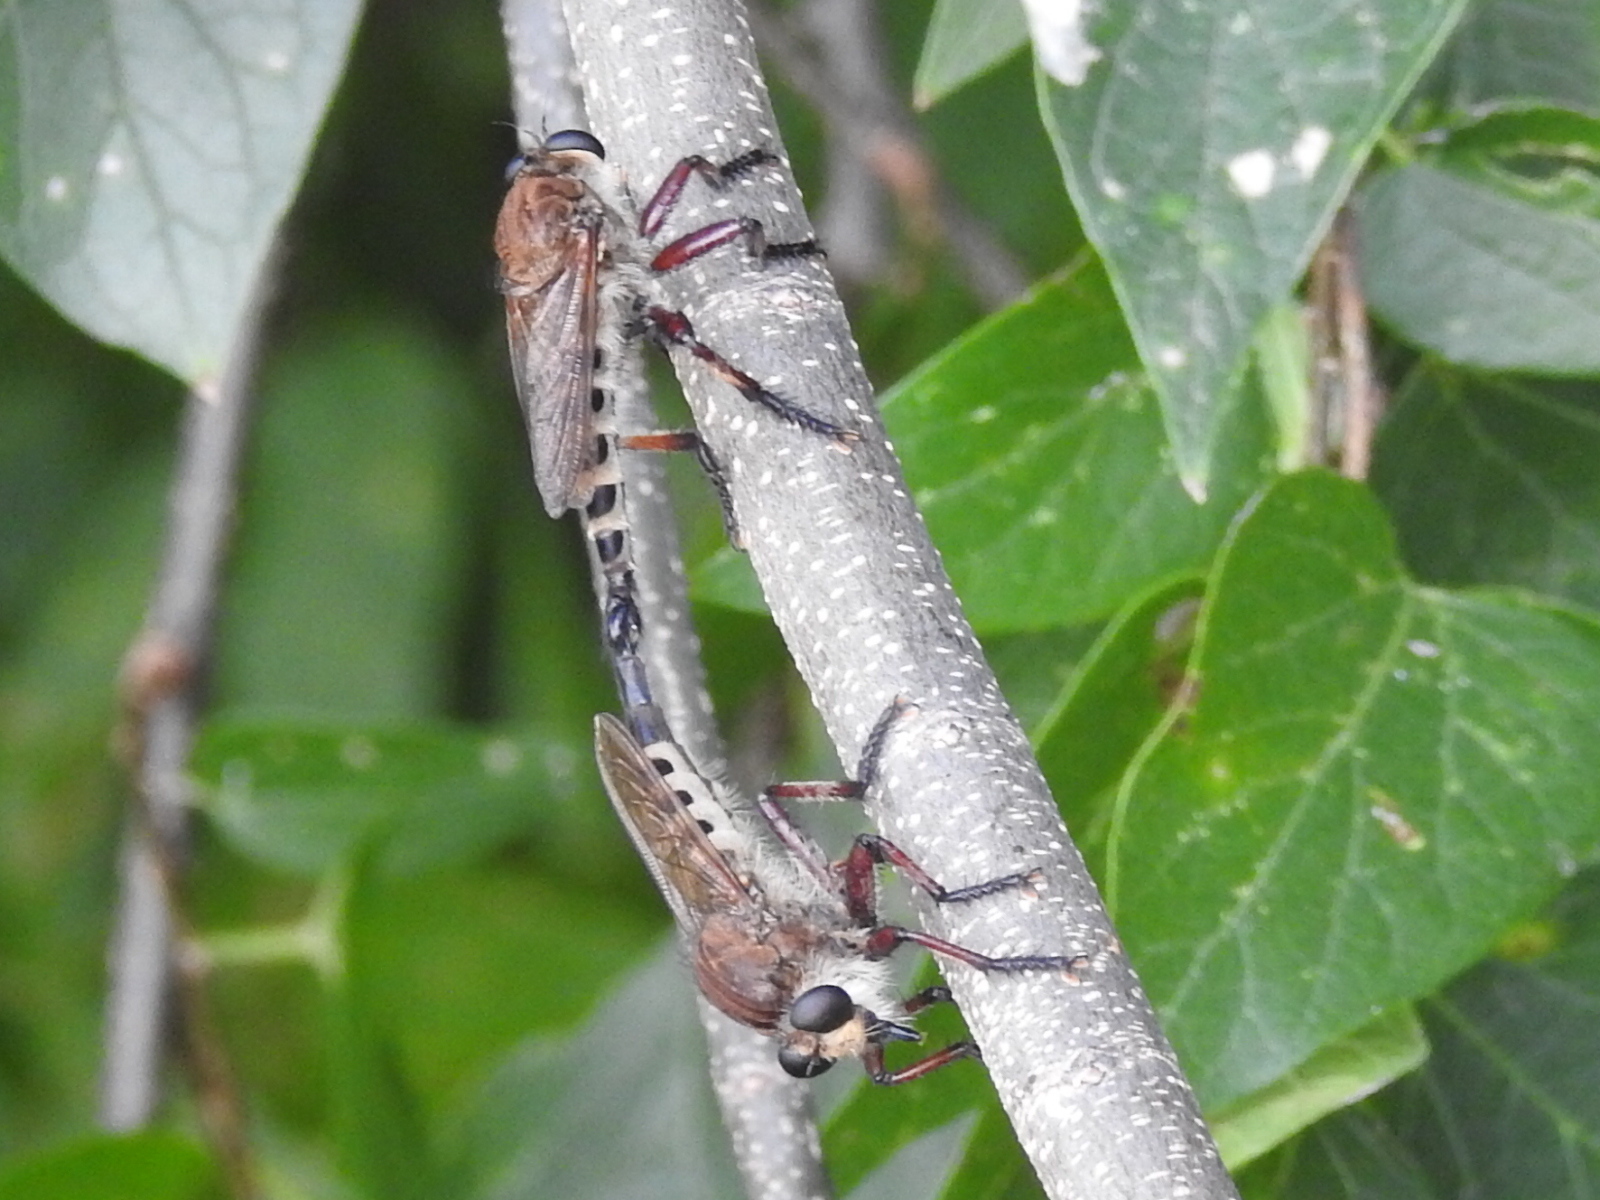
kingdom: Animalia
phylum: Arthropoda
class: Insecta
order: Diptera
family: Asilidae
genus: Promachus
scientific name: Promachus hinei
